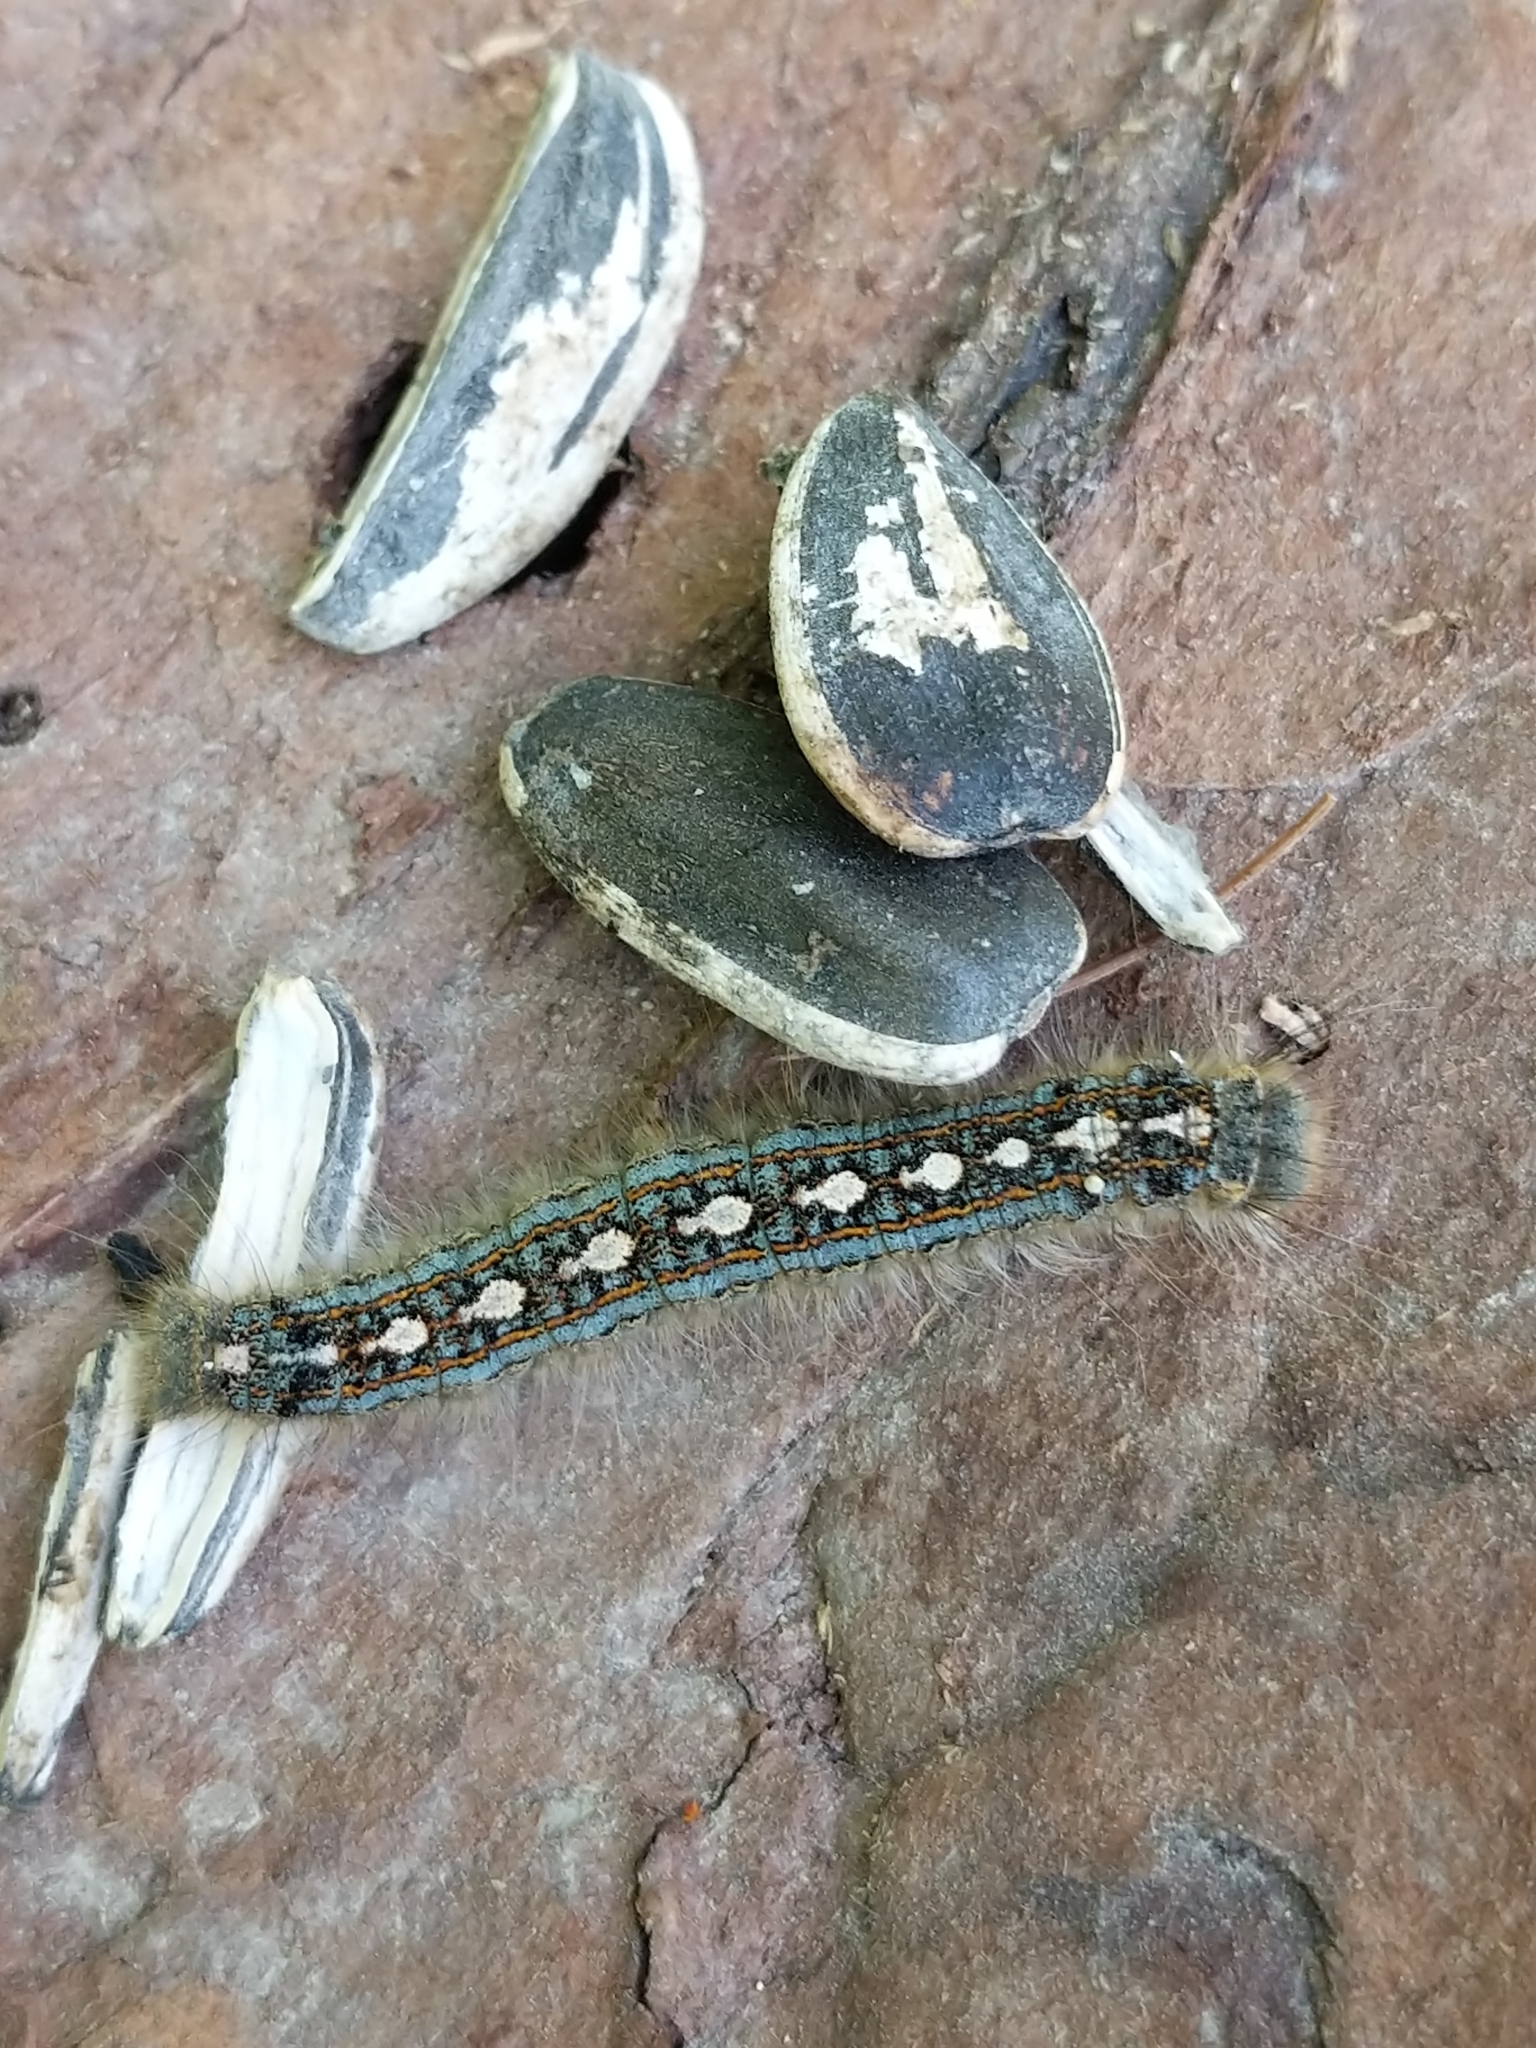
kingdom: Animalia
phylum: Arthropoda
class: Insecta
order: Lepidoptera
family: Lasiocampidae
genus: Malacosoma
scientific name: Malacosoma disstria
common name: Forest tent caterpillar
